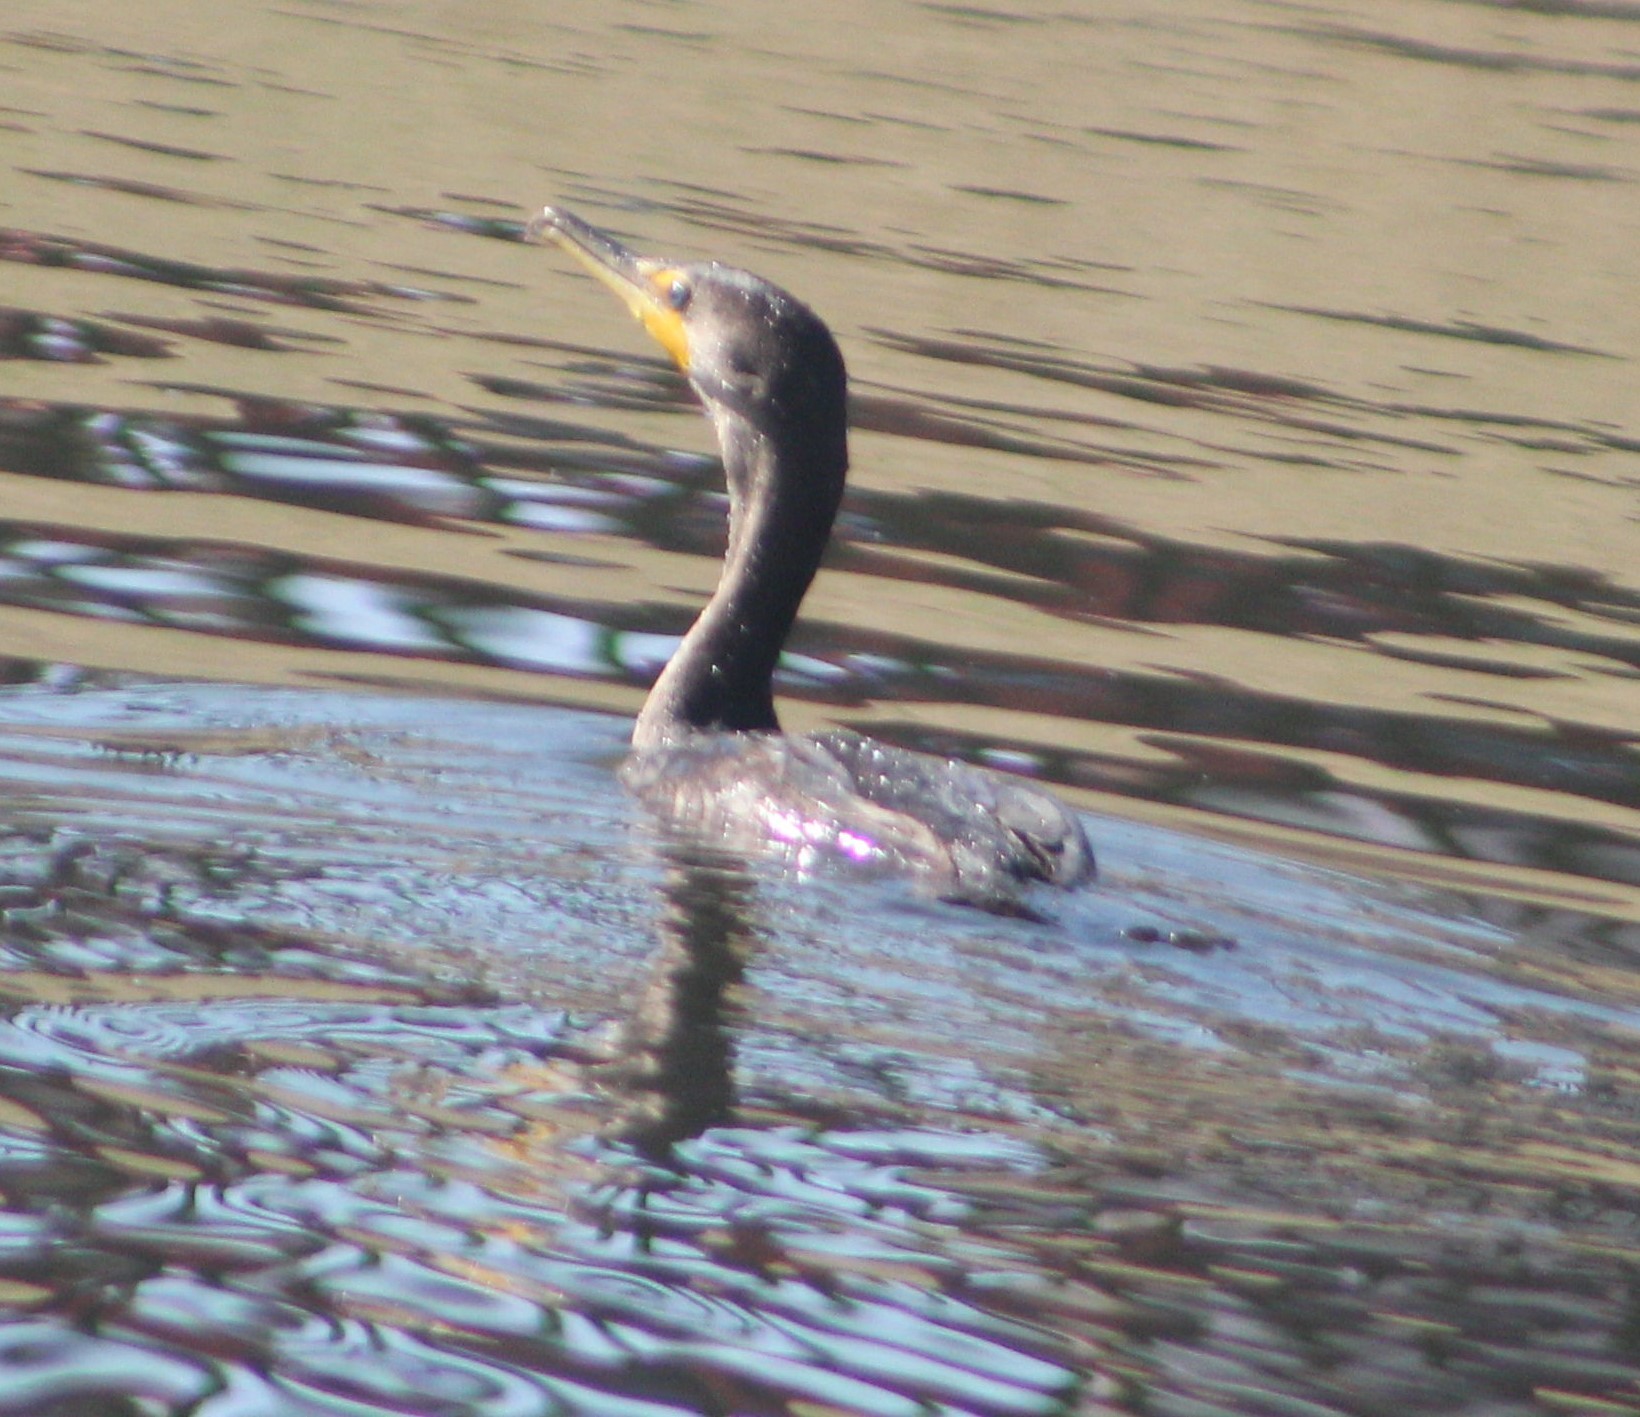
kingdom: Animalia
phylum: Chordata
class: Aves
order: Suliformes
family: Phalacrocoracidae
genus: Phalacrocorax
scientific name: Phalacrocorax auritus
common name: Double-crested cormorant
